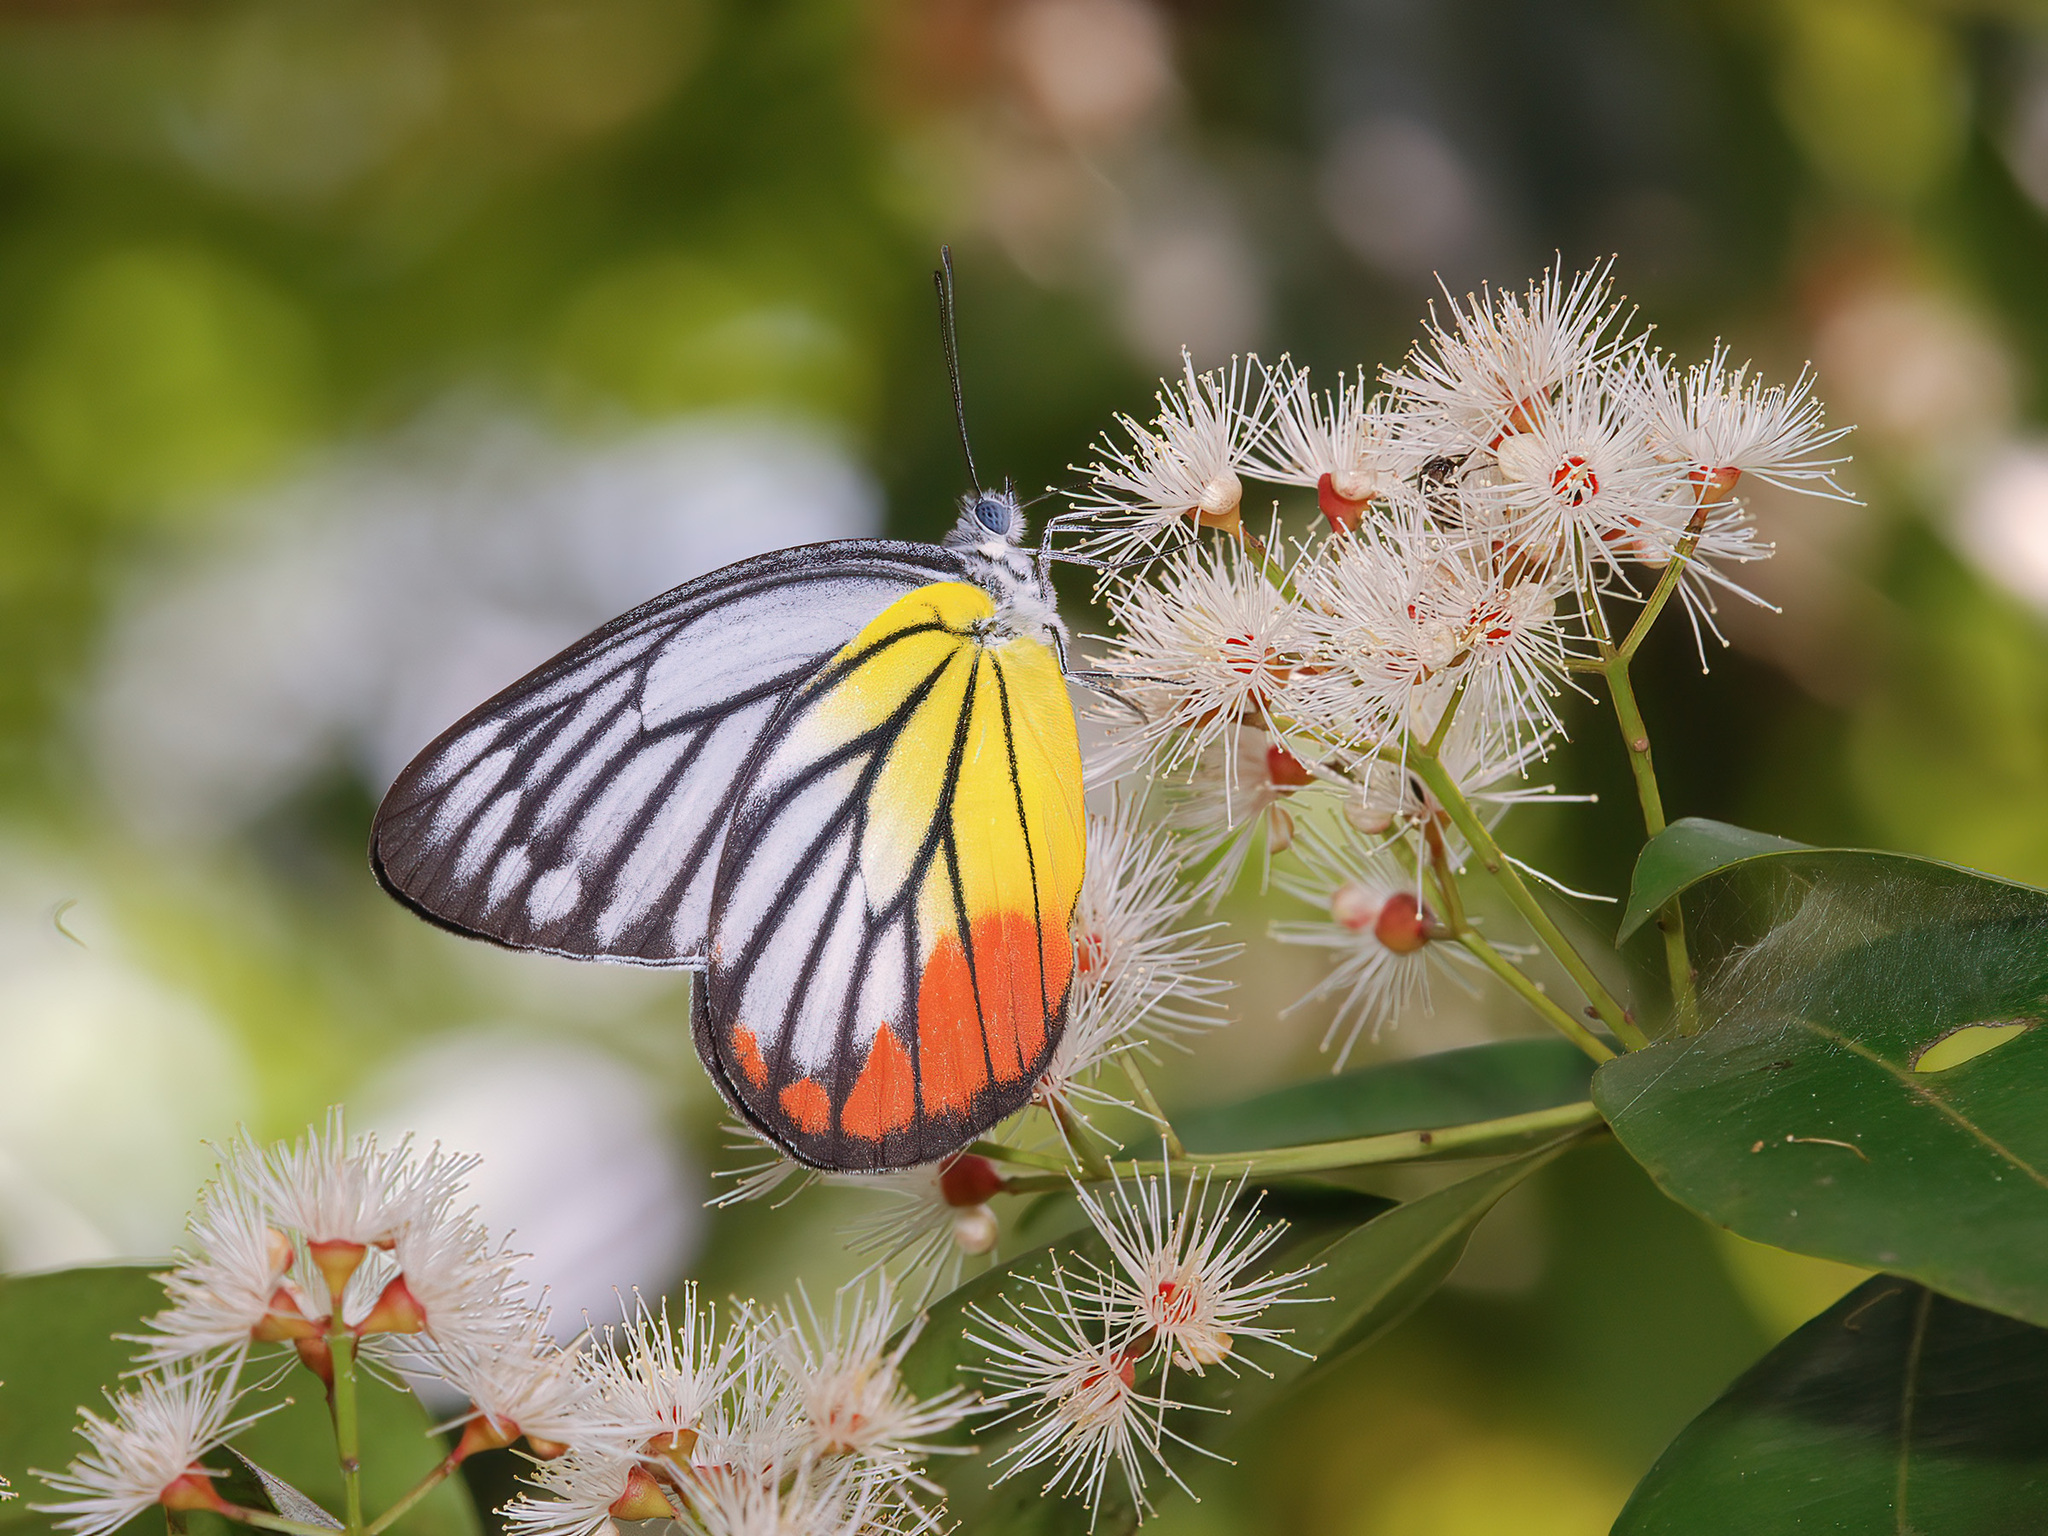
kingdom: Animalia
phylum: Arthropoda
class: Insecta
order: Lepidoptera
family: Pieridae
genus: Delias
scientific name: Delias hyparete
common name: Painted jezebel
